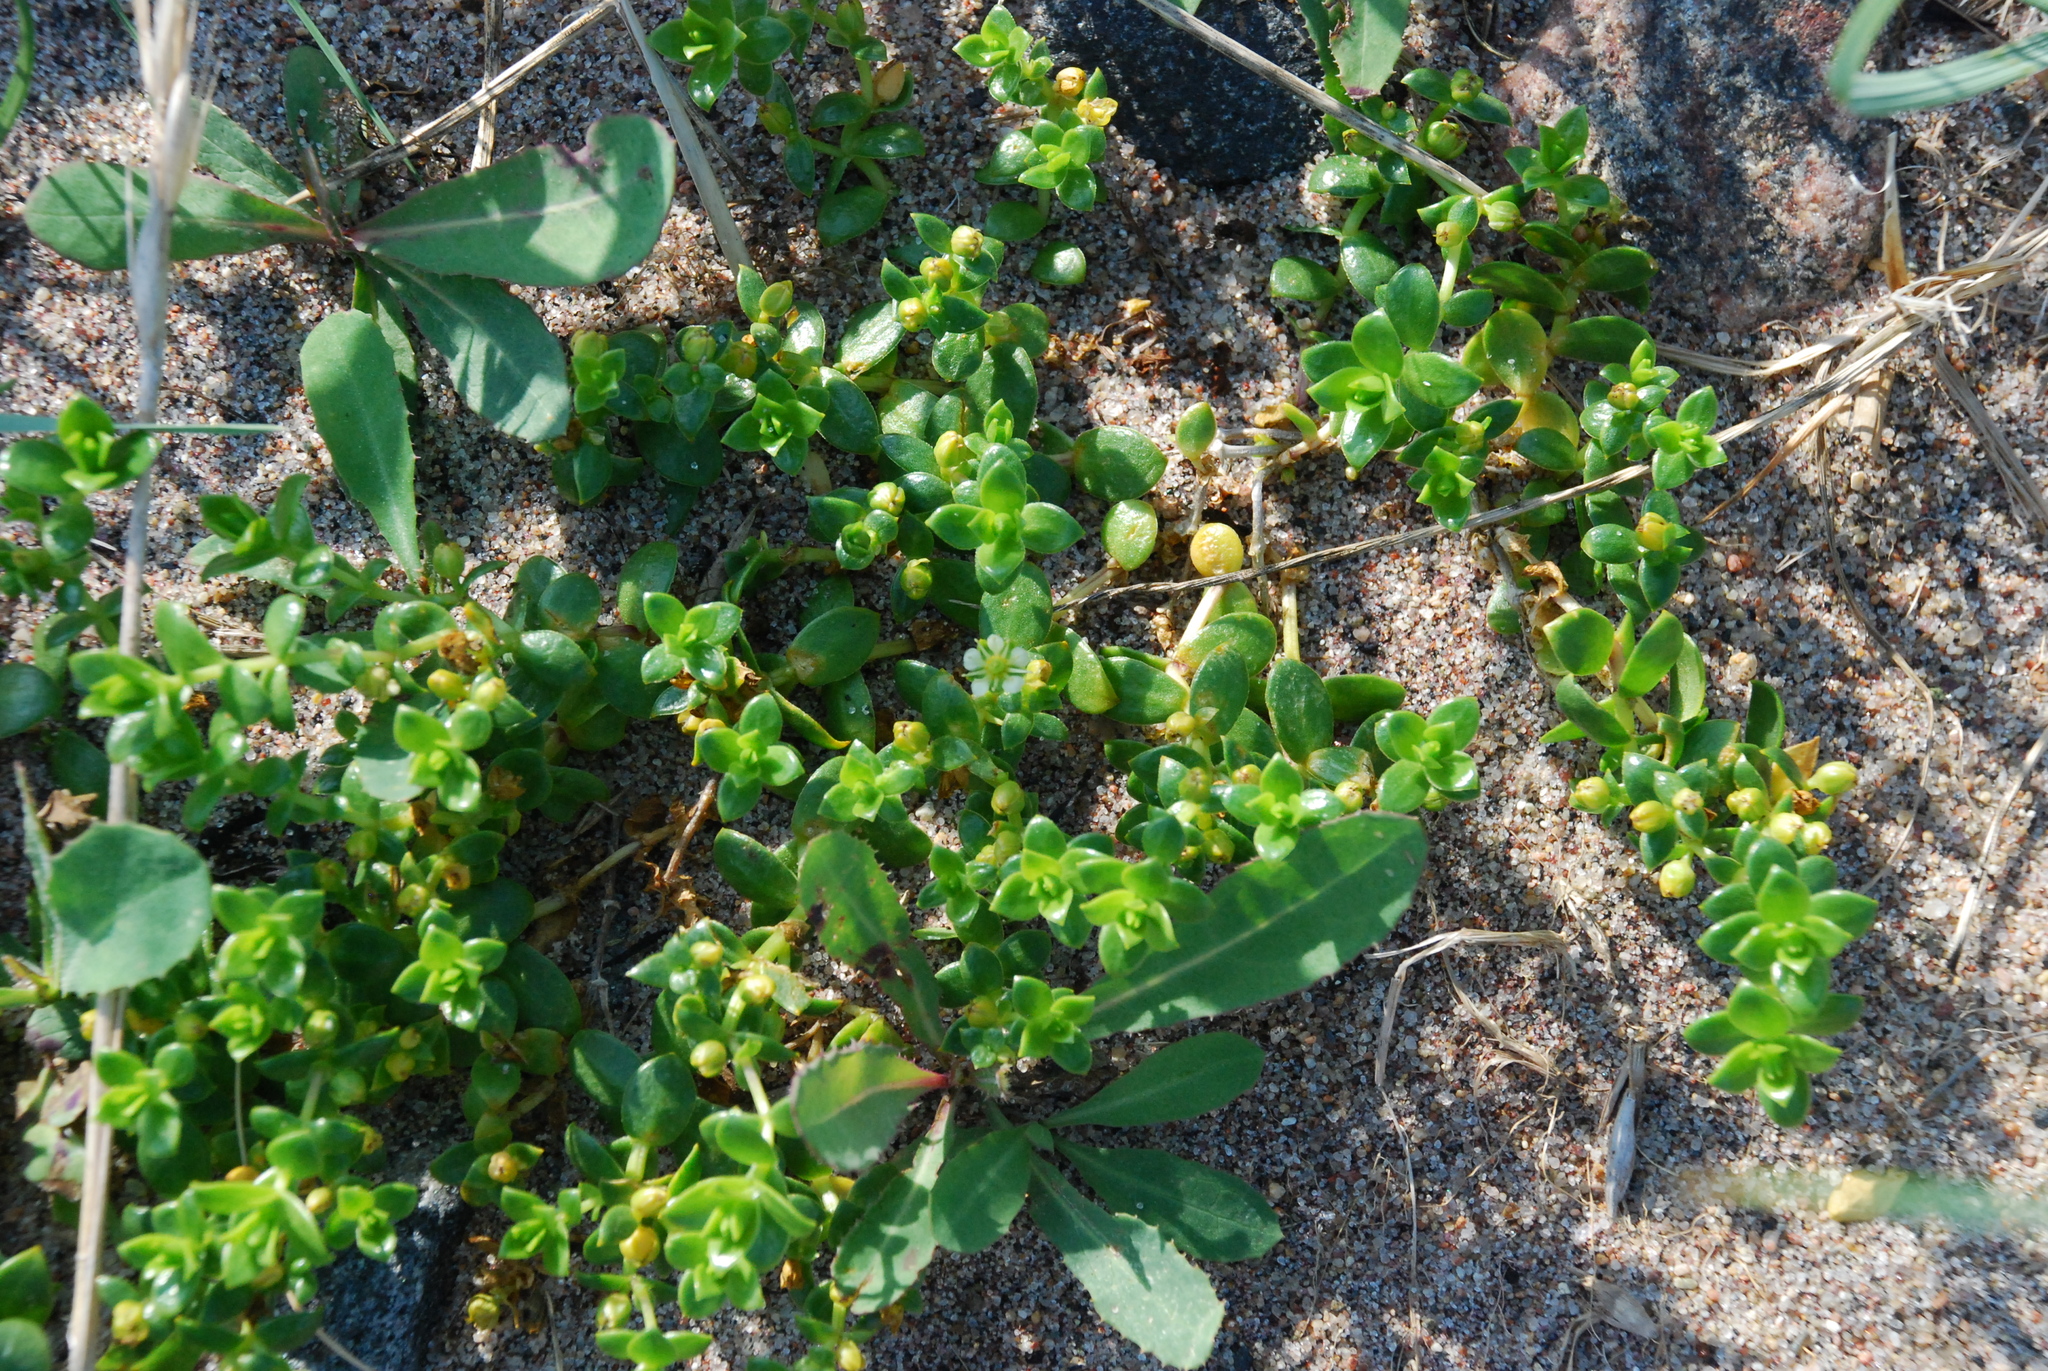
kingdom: Plantae
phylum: Tracheophyta
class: Magnoliopsida
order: Caryophyllales
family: Caryophyllaceae
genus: Honckenya
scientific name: Honckenya peploides
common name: Sea sandwort
